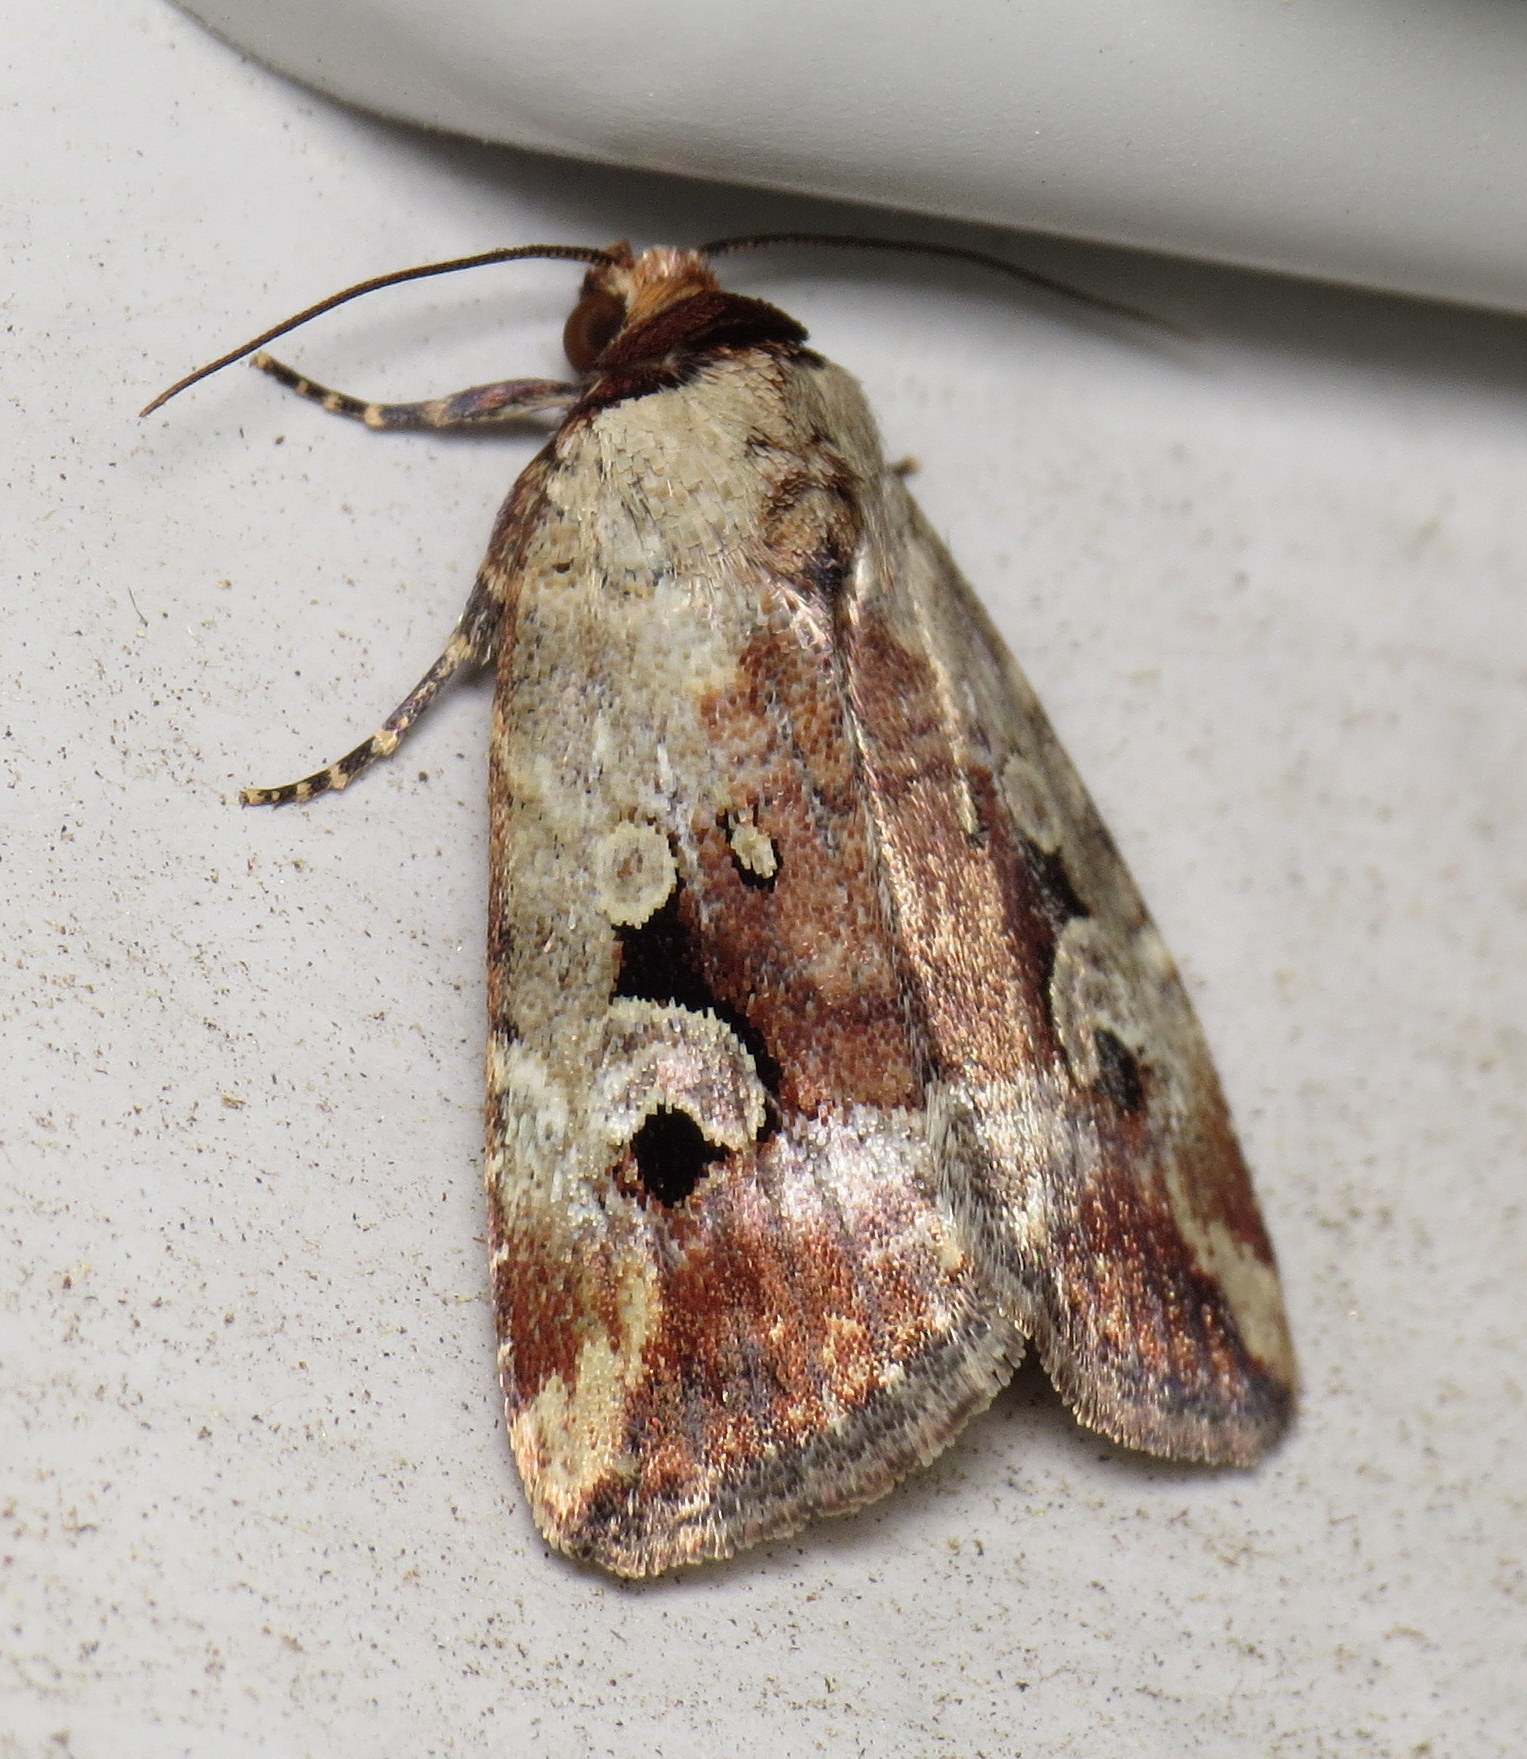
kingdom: Animalia
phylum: Arthropoda
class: Insecta
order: Lepidoptera
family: Noctuidae
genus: Elaphria
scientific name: Elaphria alapallida
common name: Pale-winged midget
